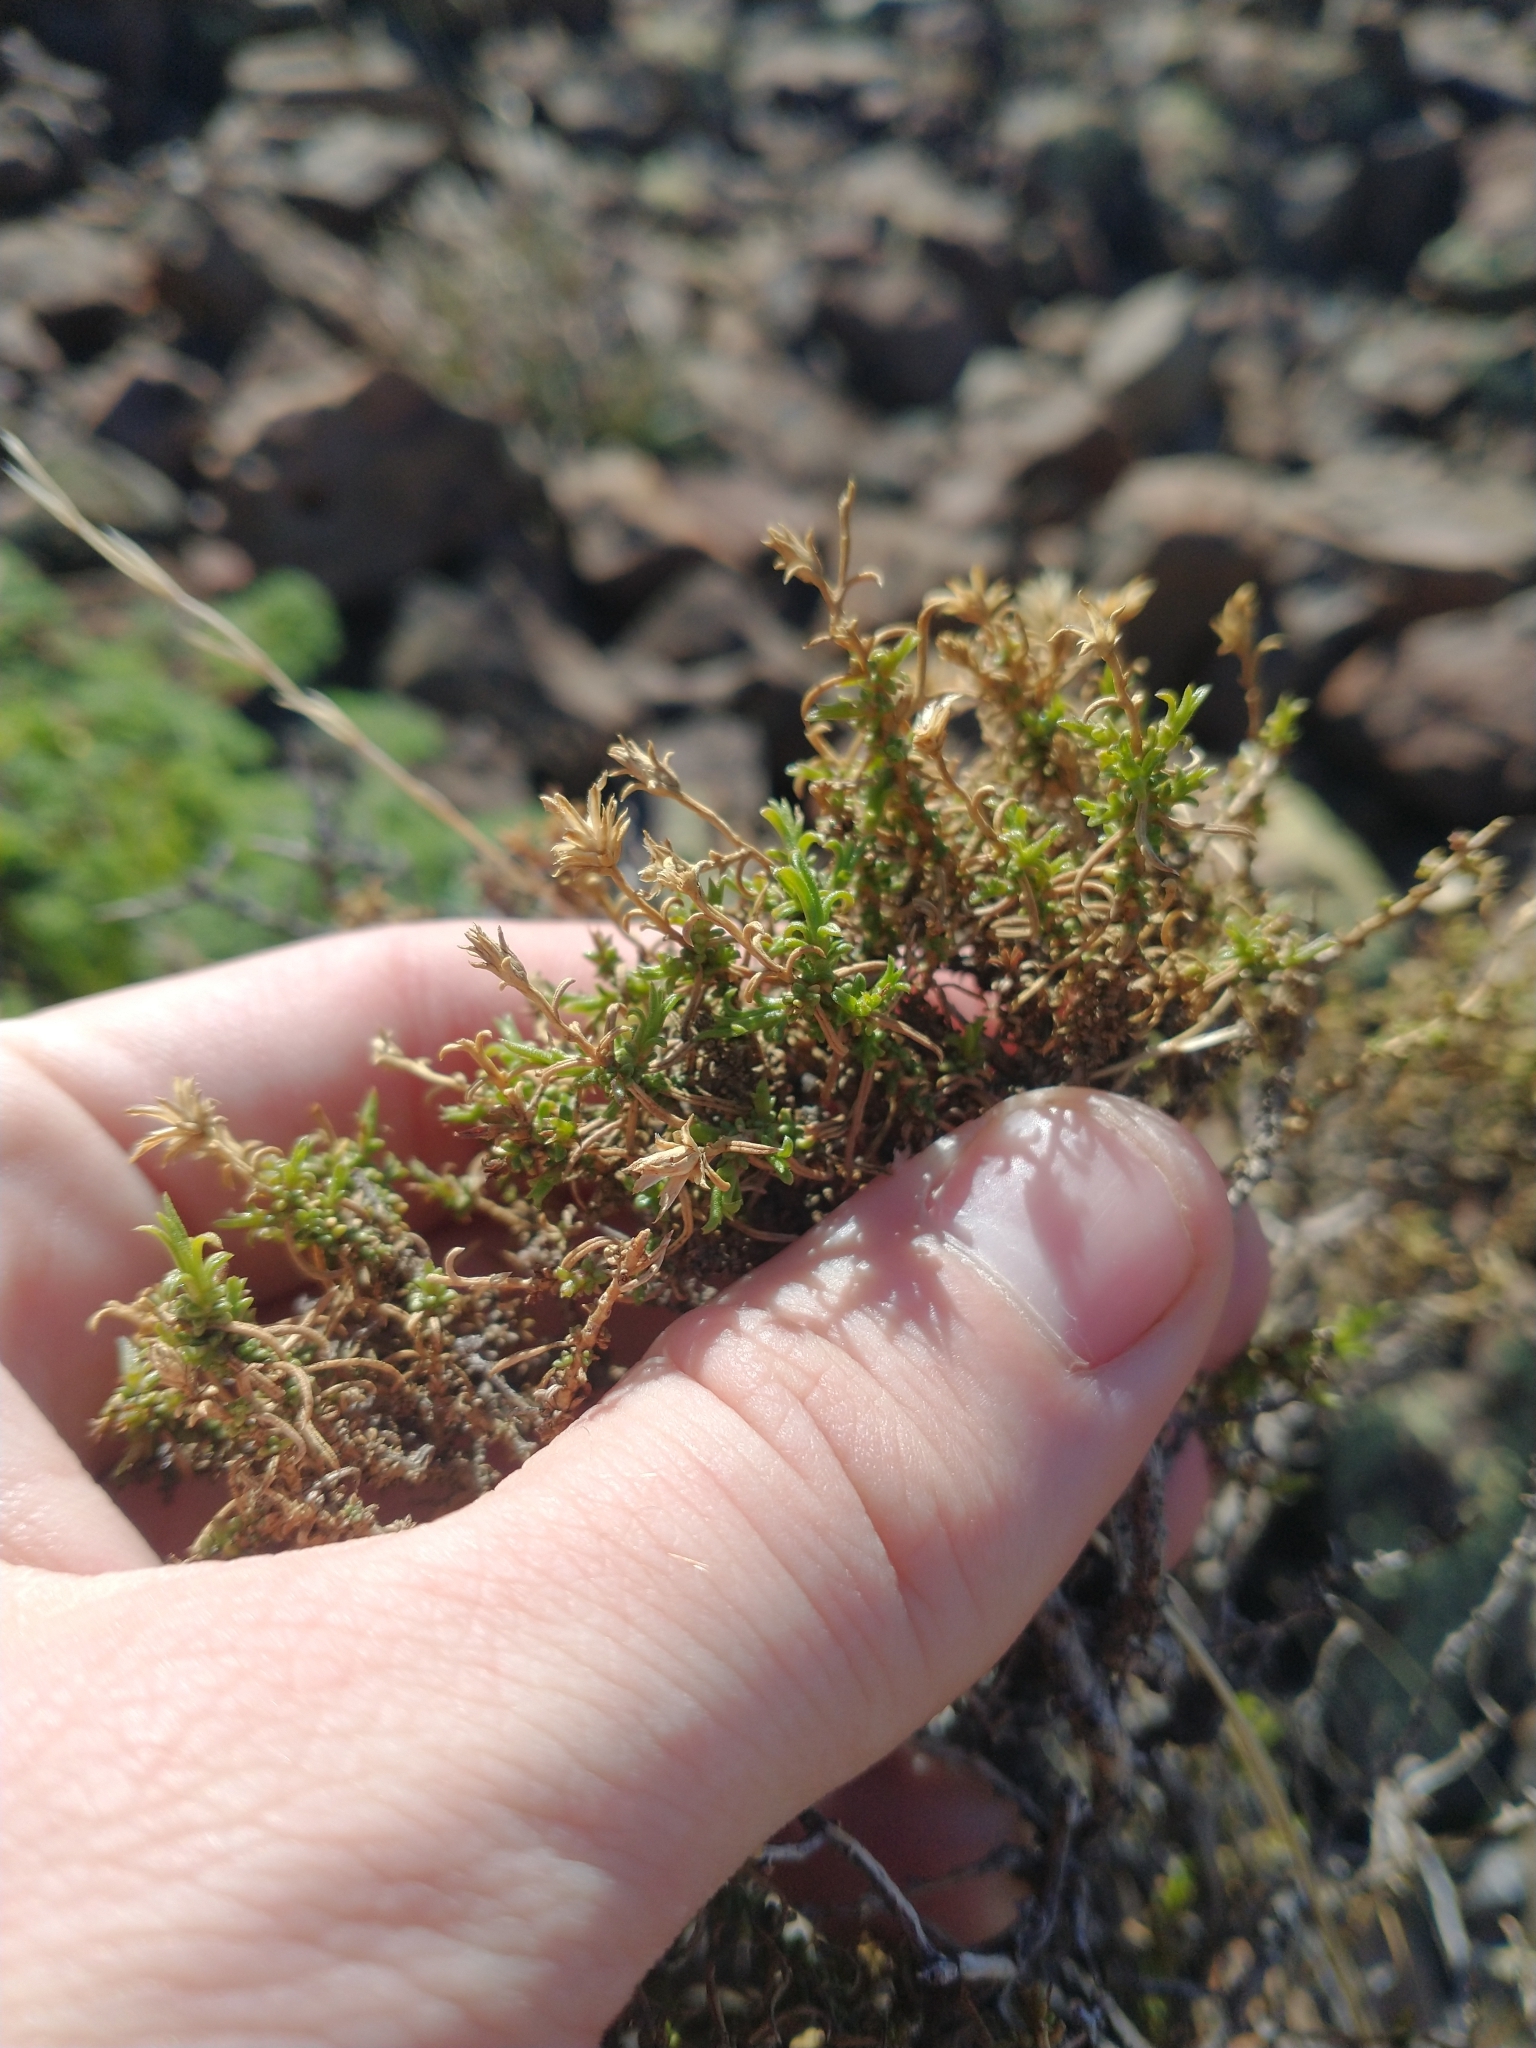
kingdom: Plantae
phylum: Tracheophyta
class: Magnoliopsida
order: Asterales
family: Asteraceae
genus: Ericameria
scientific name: Ericameria resinosa
